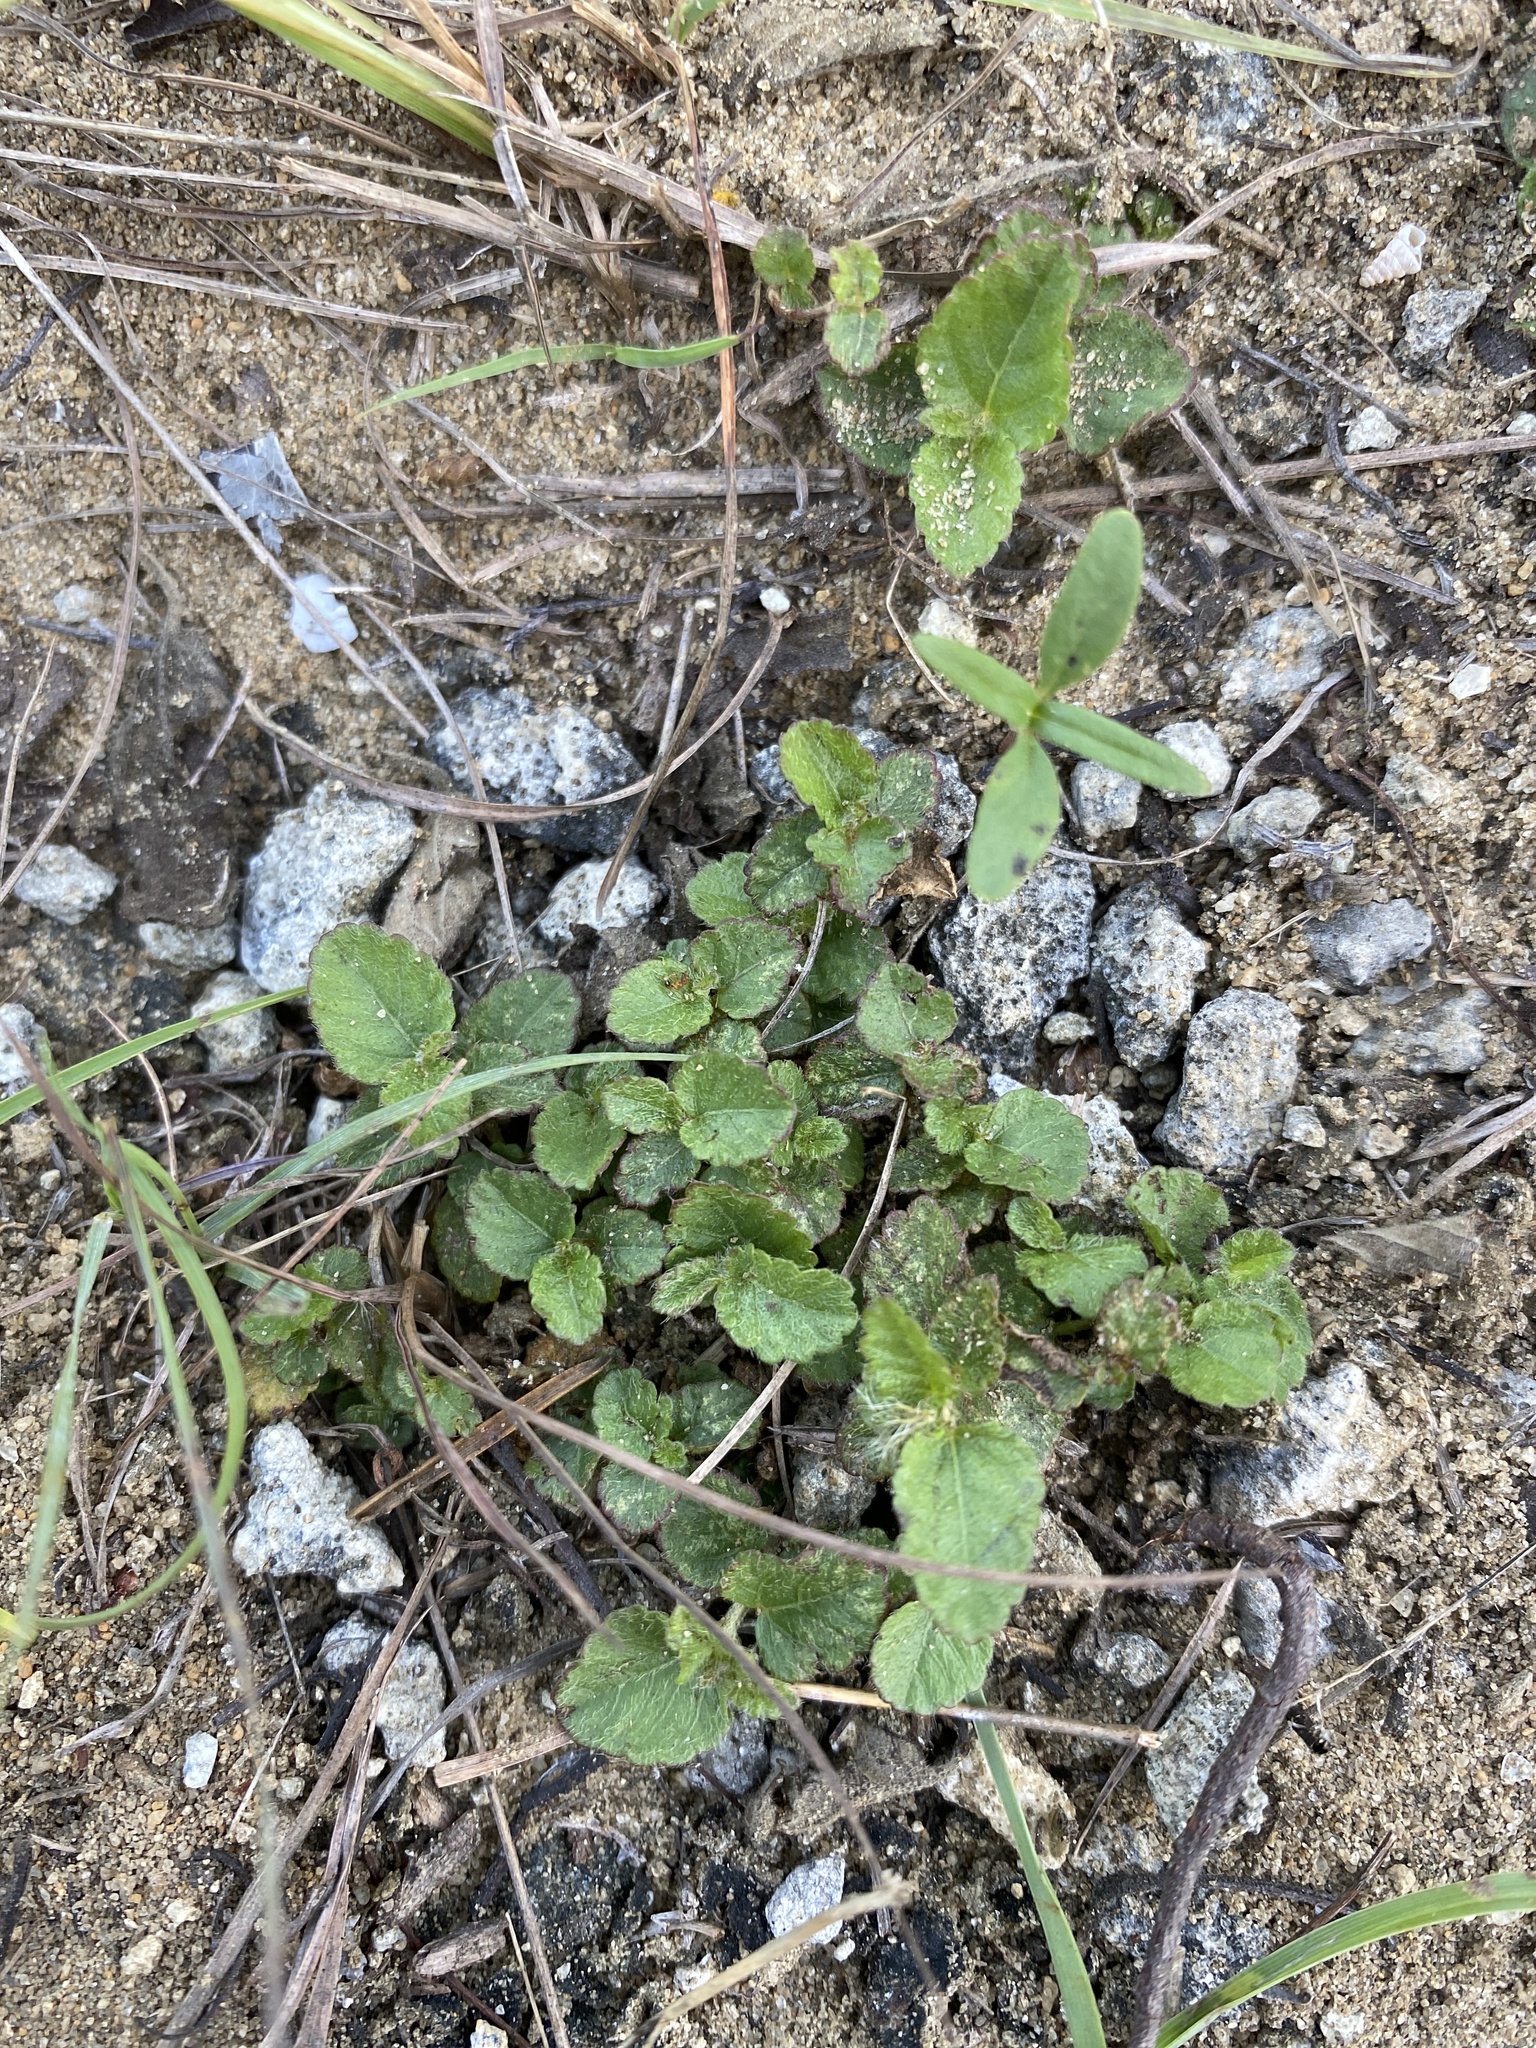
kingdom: Plantae
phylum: Tracheophyta
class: Magnoliopsida
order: Malpighiales
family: Euphorbiaceae
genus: Acalypha
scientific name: Acalypha chamaedrifolia
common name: Bastard copperleaf
